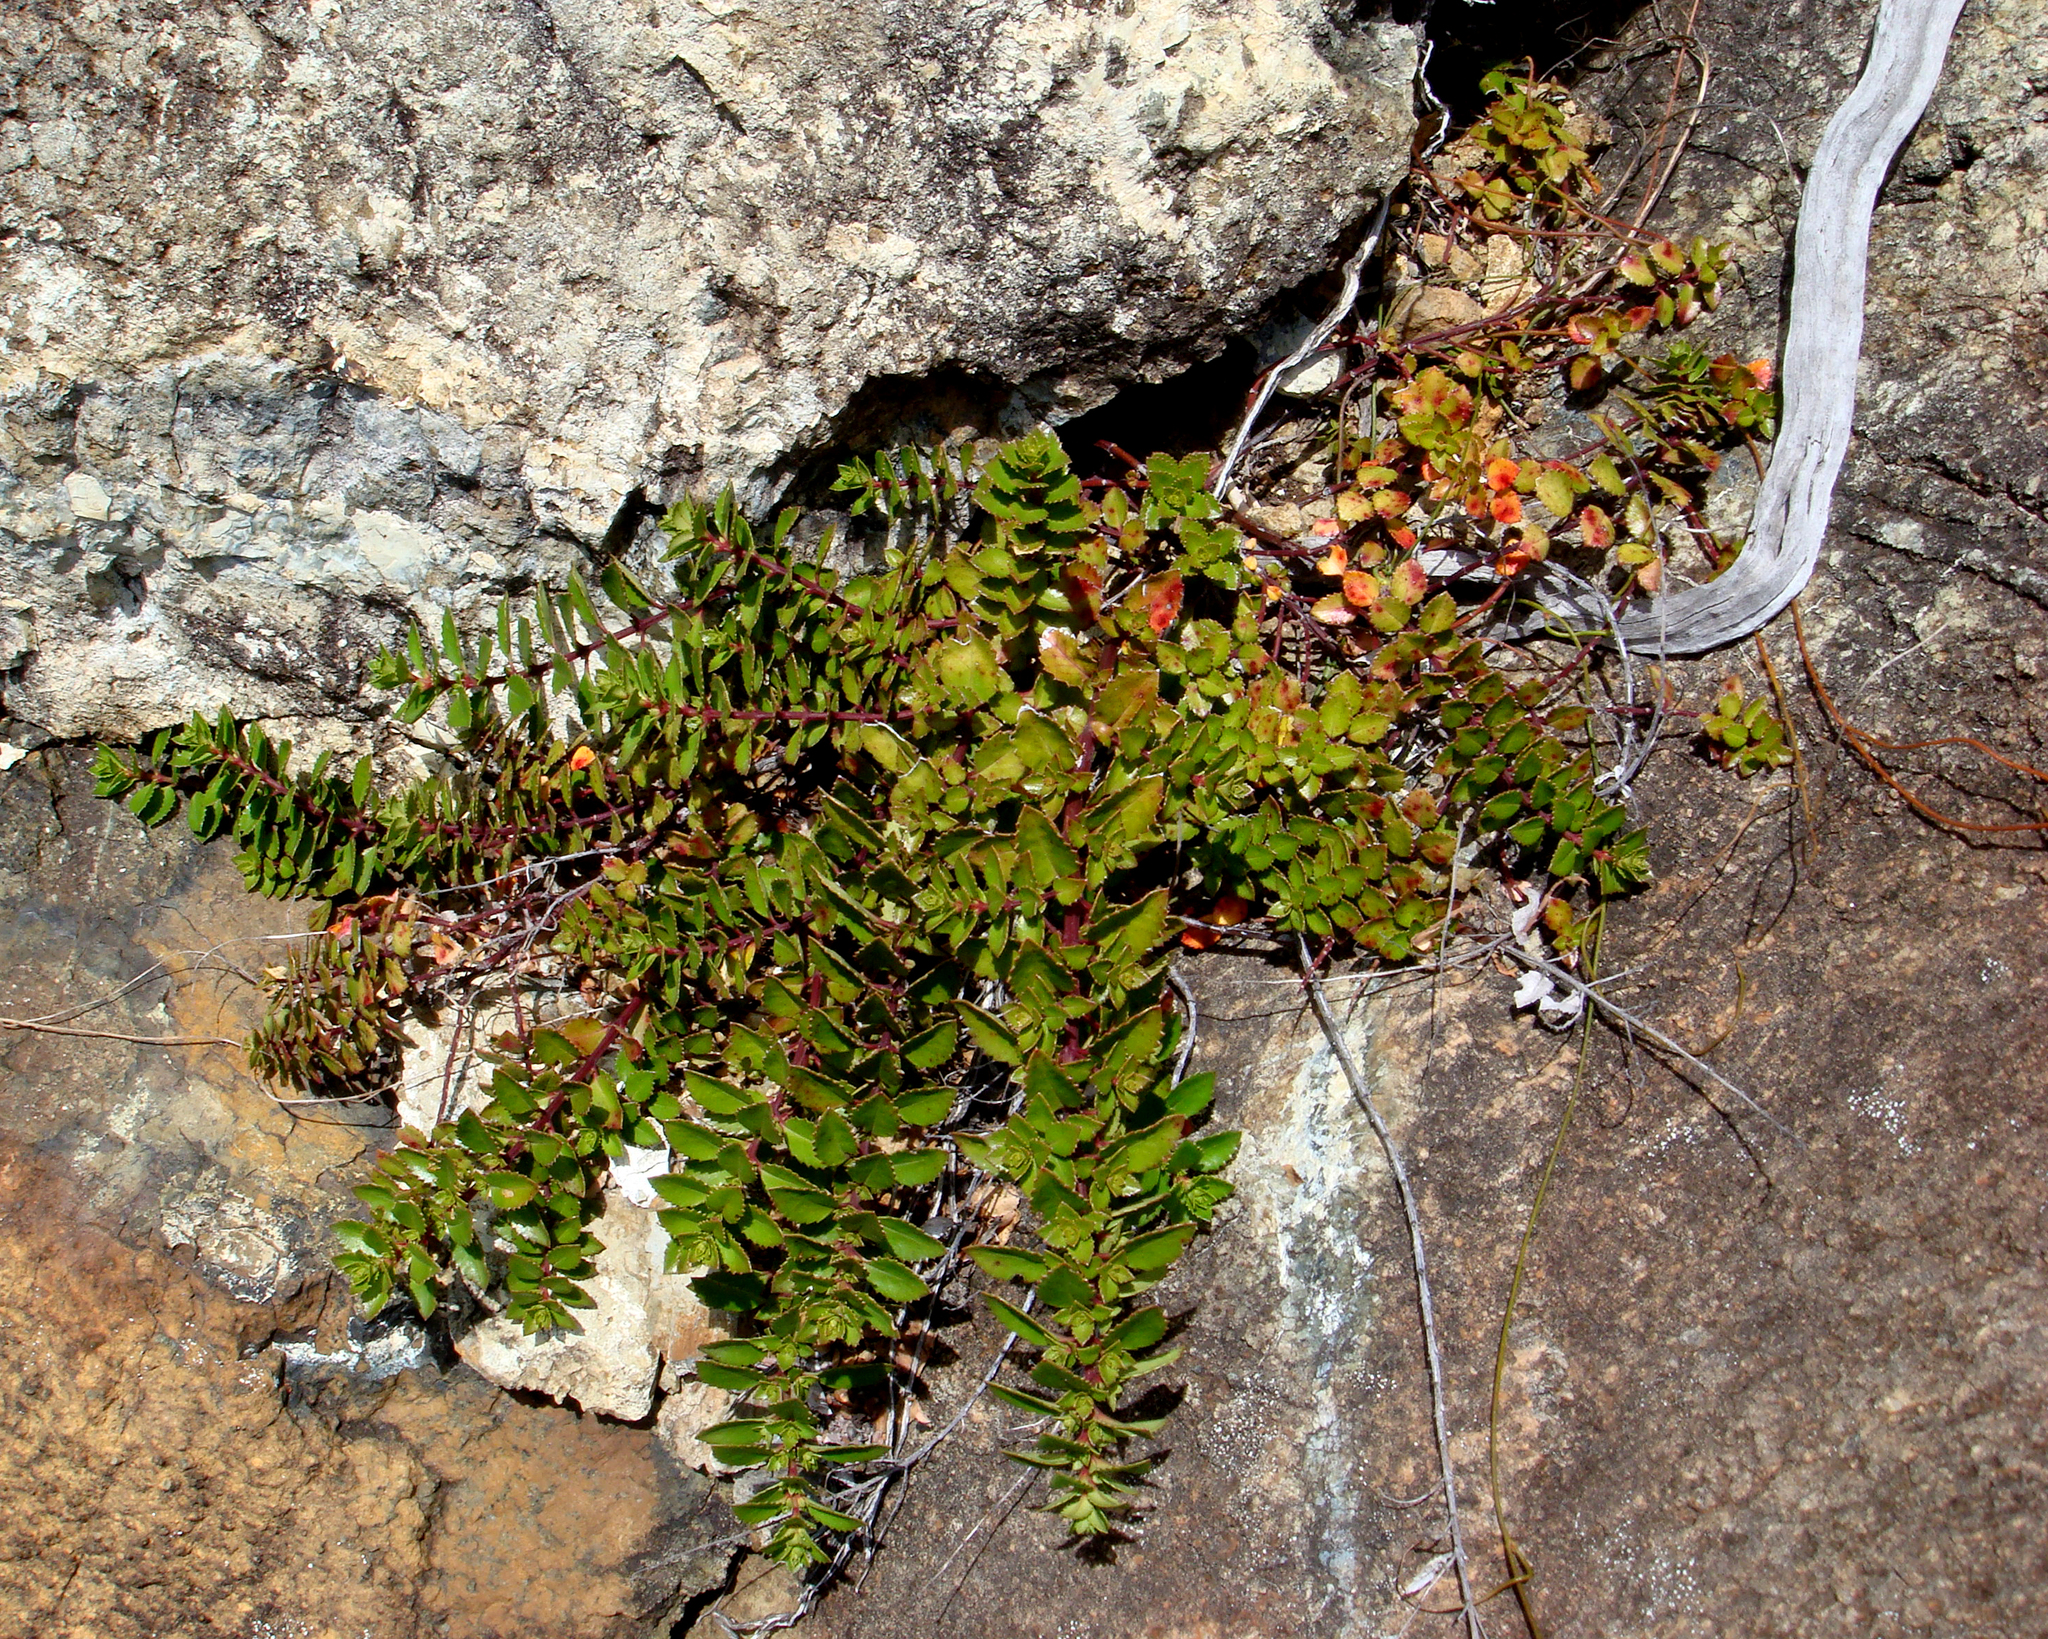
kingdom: Plantae
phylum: Tracheophyta
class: Magnoliopsida
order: Saxifragales
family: Haloragaceae
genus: Haloragis
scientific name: Haloragis erecta
